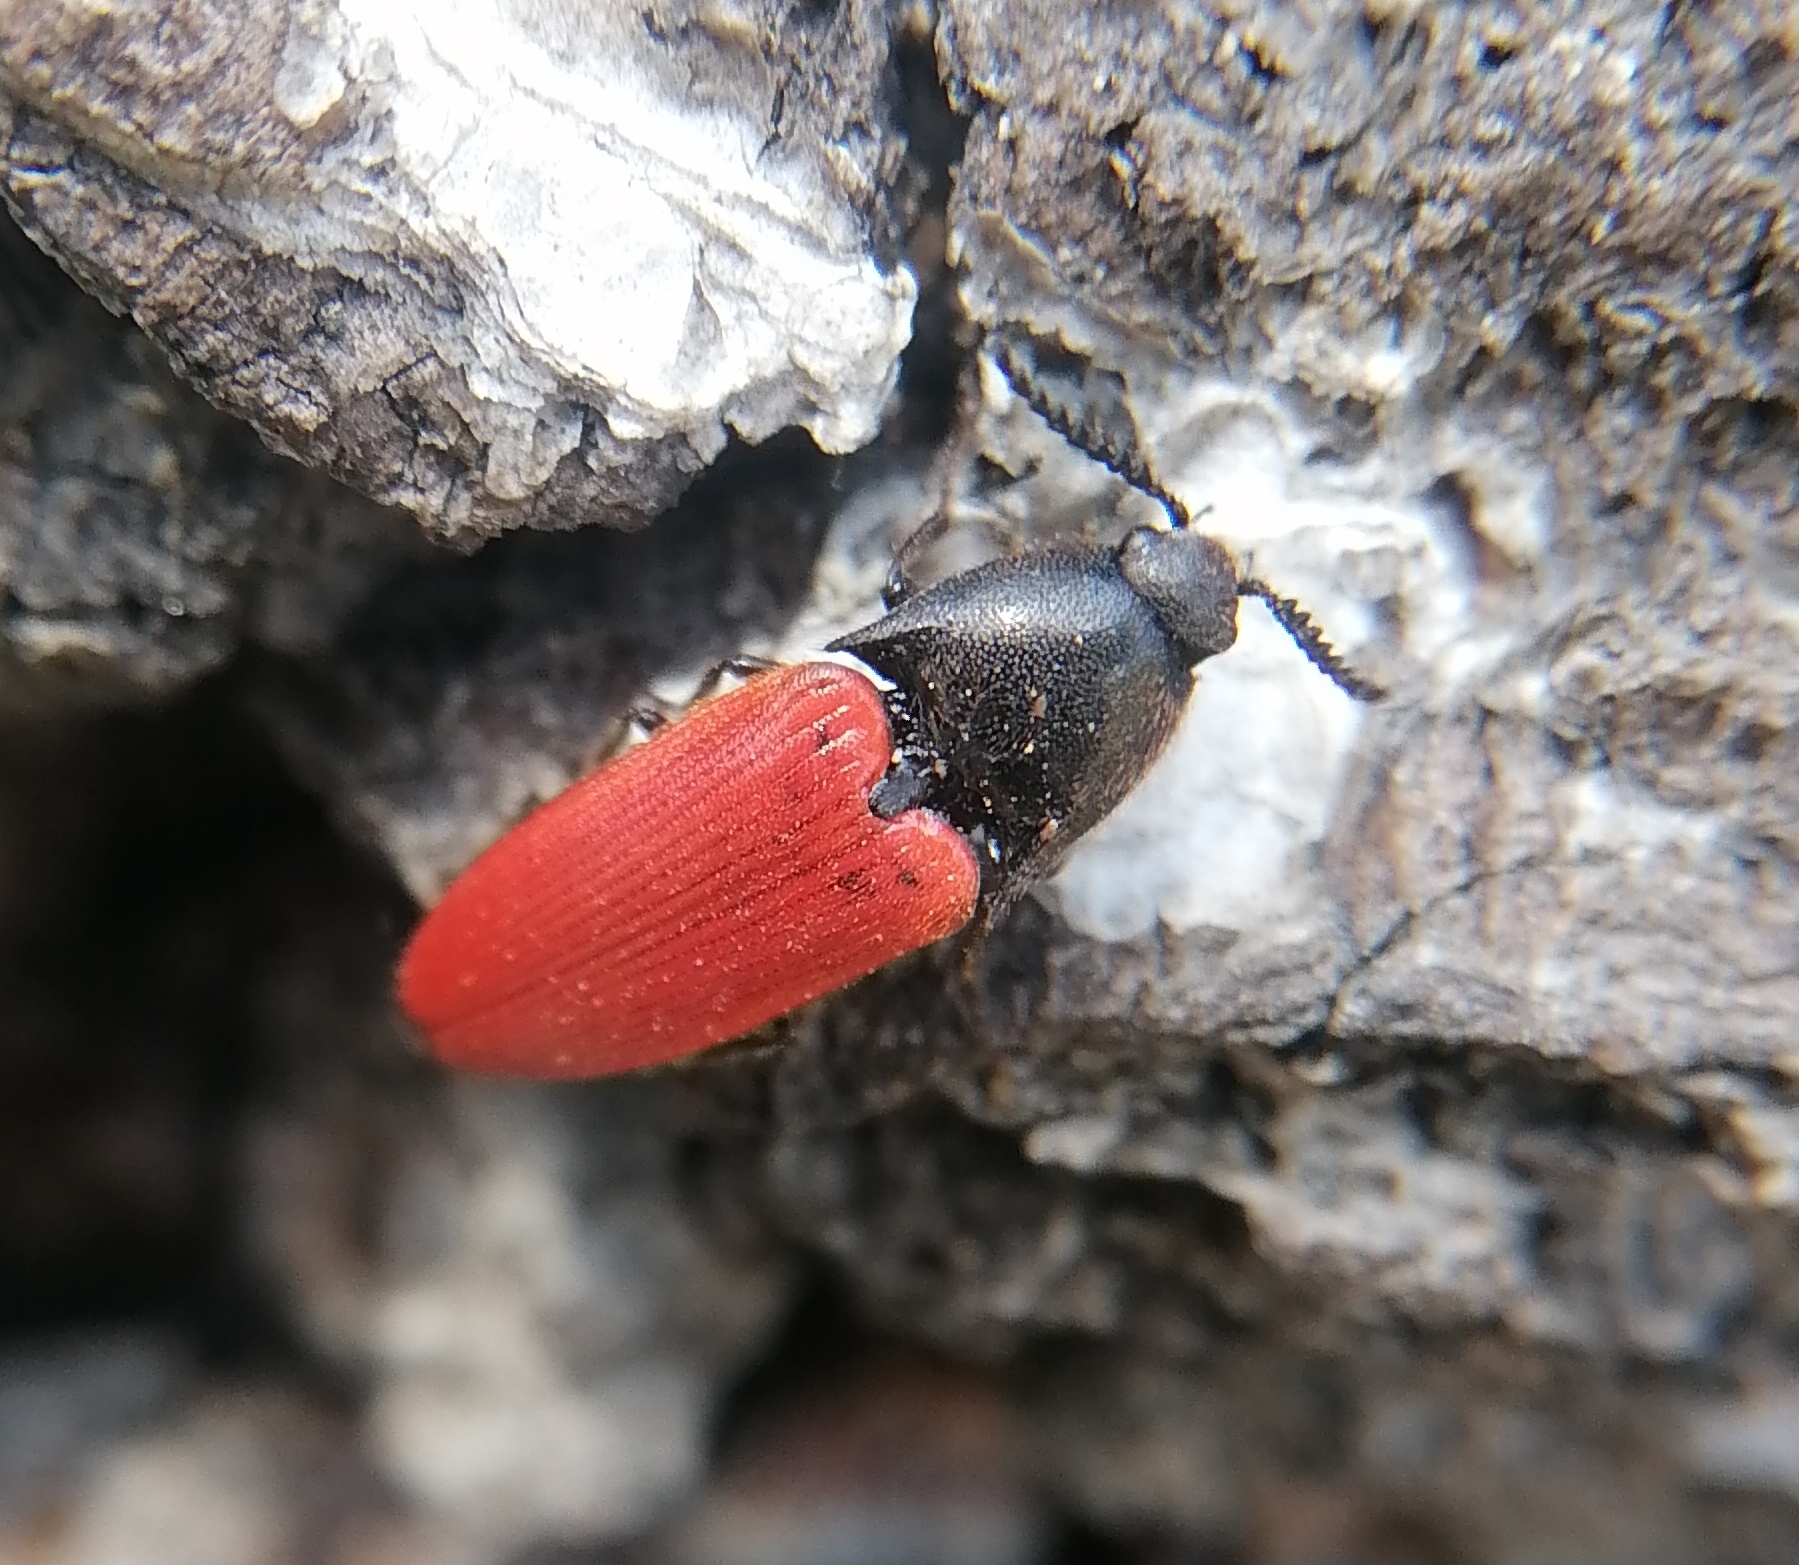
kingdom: Animalia
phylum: Arthropoda
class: Insecta
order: Coleoptera
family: Elateridae
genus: Ampedus
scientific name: Ampedus sanguineus
